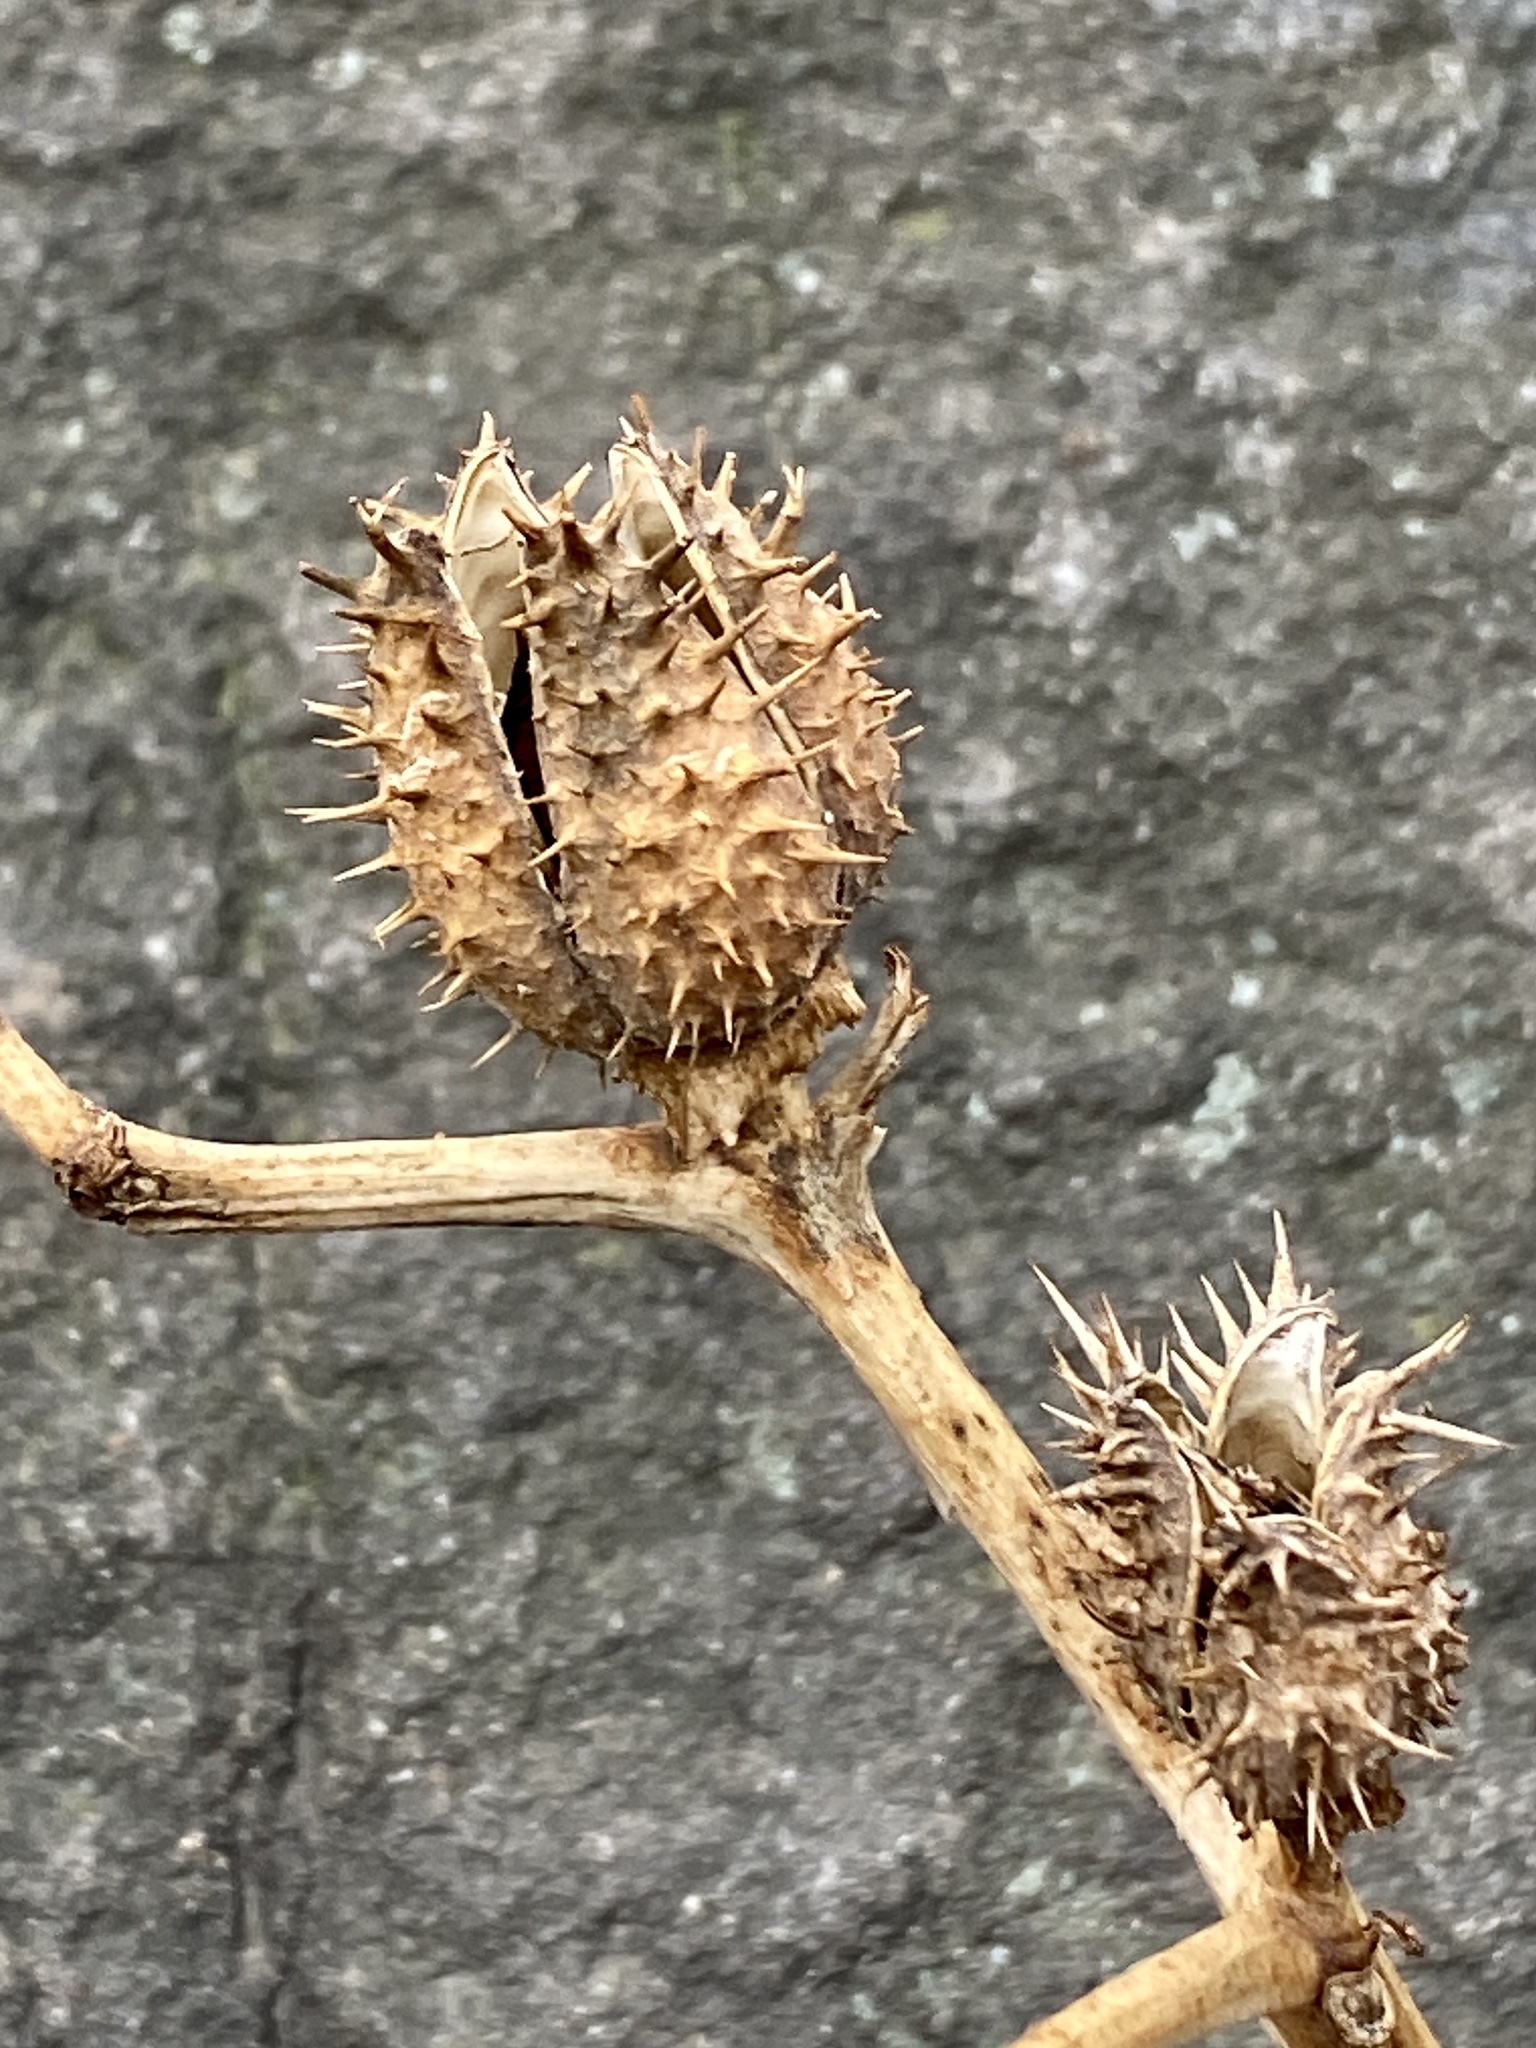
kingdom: Plantae
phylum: Tracheophyta
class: Magnoliopsida
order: Solanales
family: Solanaceae
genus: Datura
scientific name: Datura stramonium
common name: Thorn-apple
